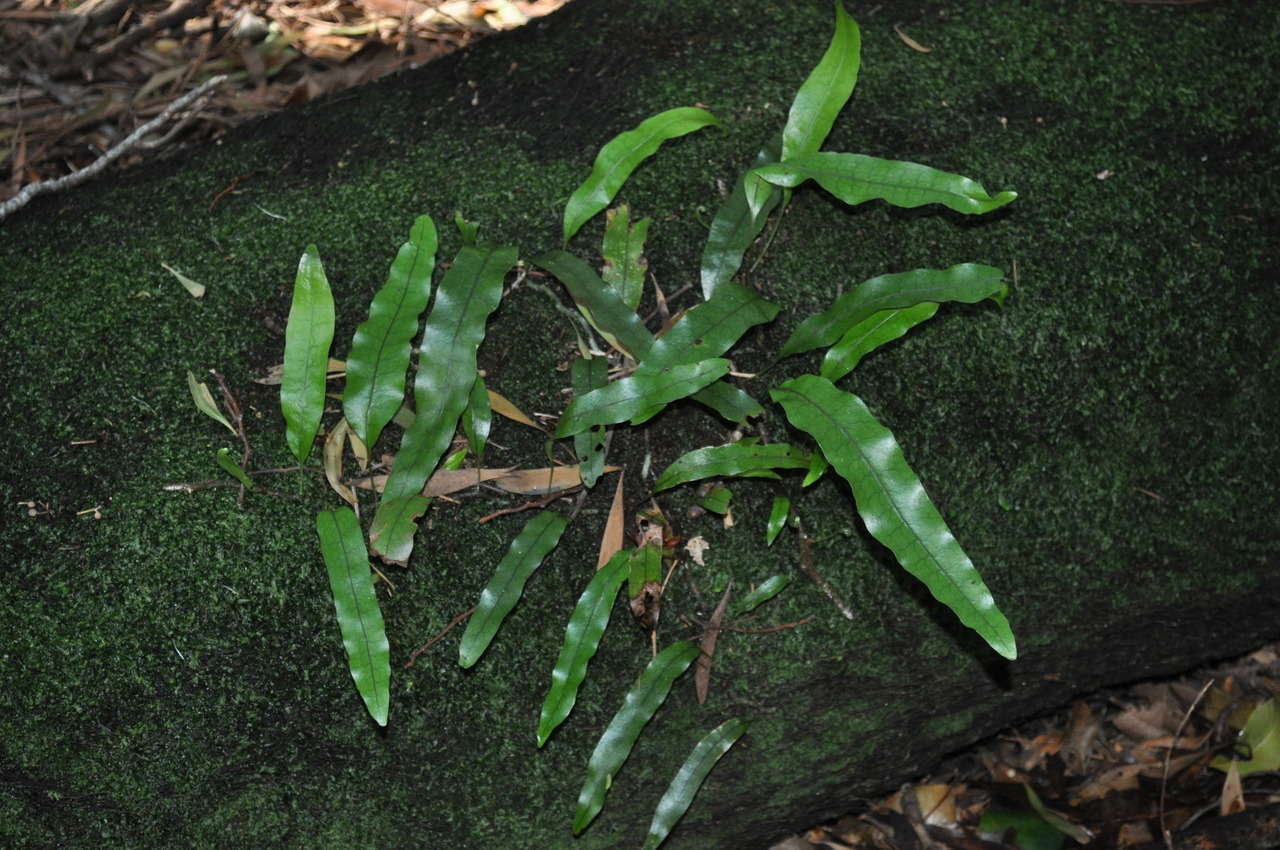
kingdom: Plantae
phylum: Tracheophyta
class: Polypodiopsida
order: Polypodiales
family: Polypodiaceae
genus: Lecanopteris
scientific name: Lecanopteris pustulata
